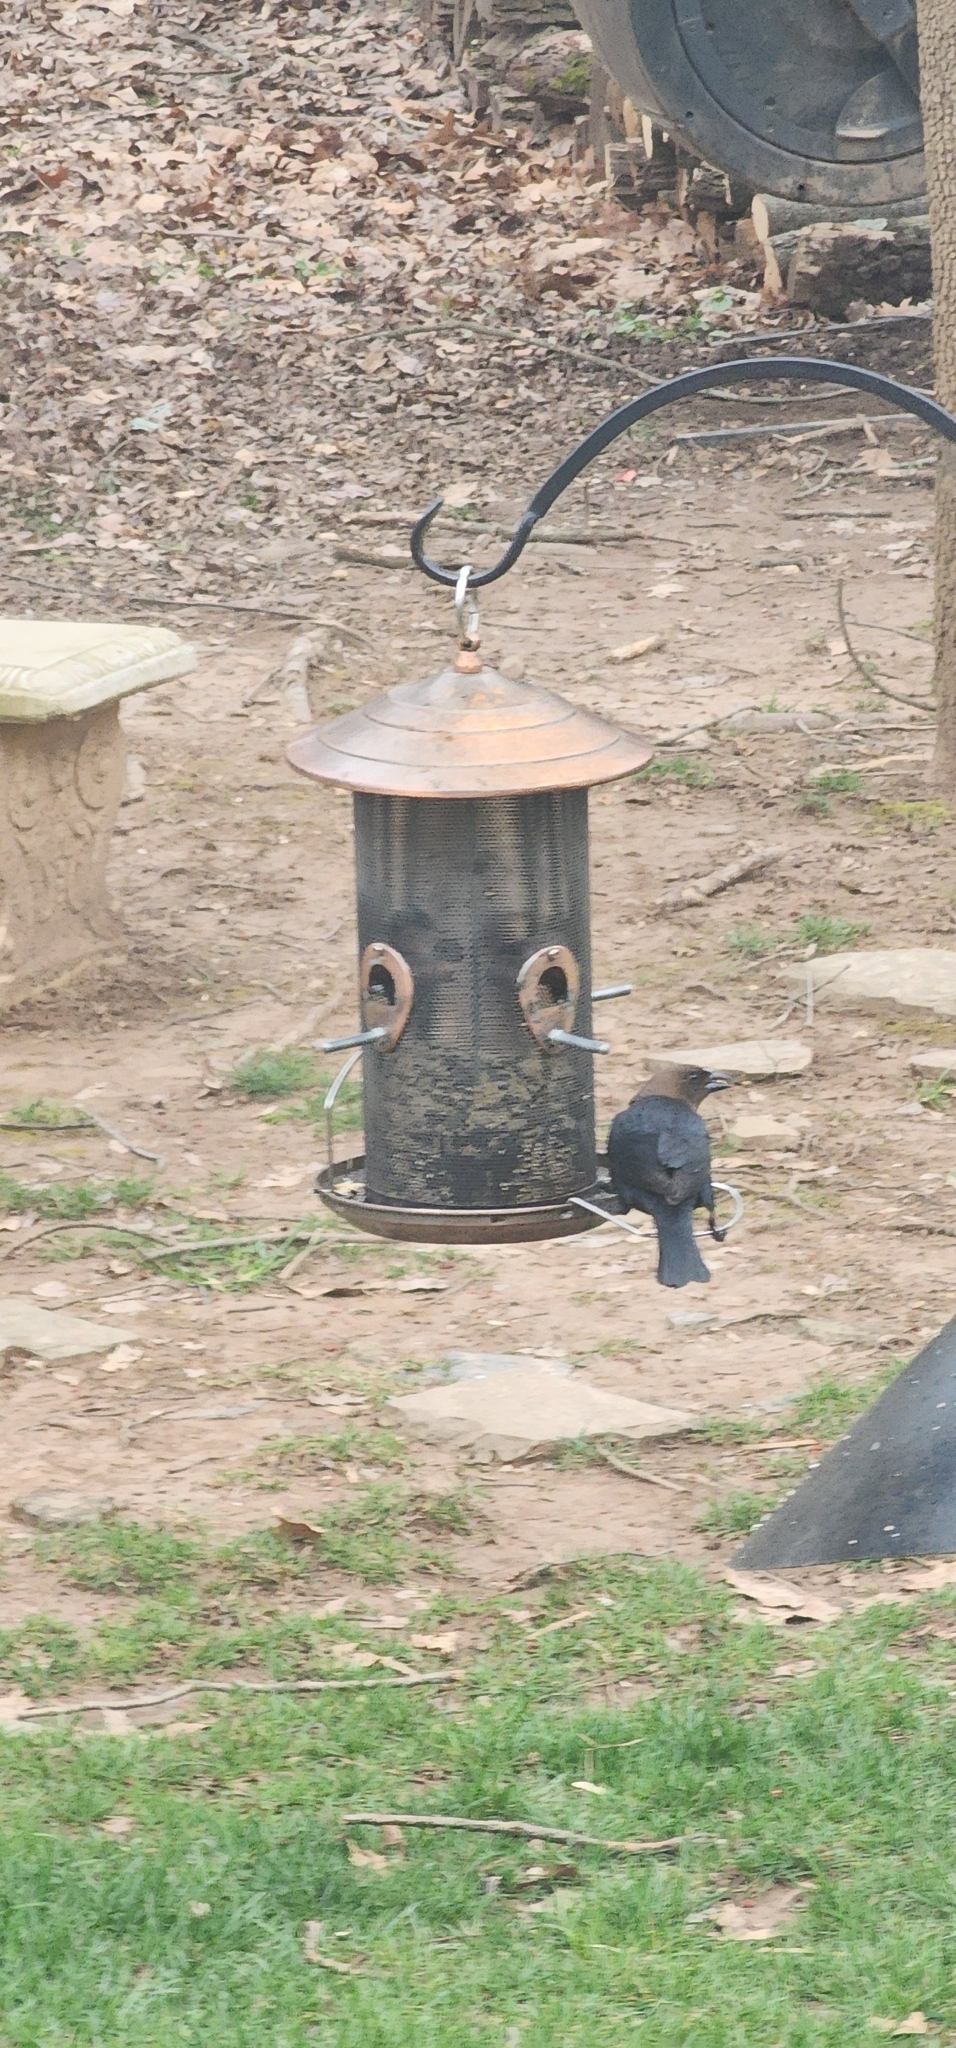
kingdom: Animalia
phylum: Chordata
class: Aves
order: Passeriformes
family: Icteridae
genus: Molothrus
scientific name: Molothrus ater
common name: Brown-headed cowbird
